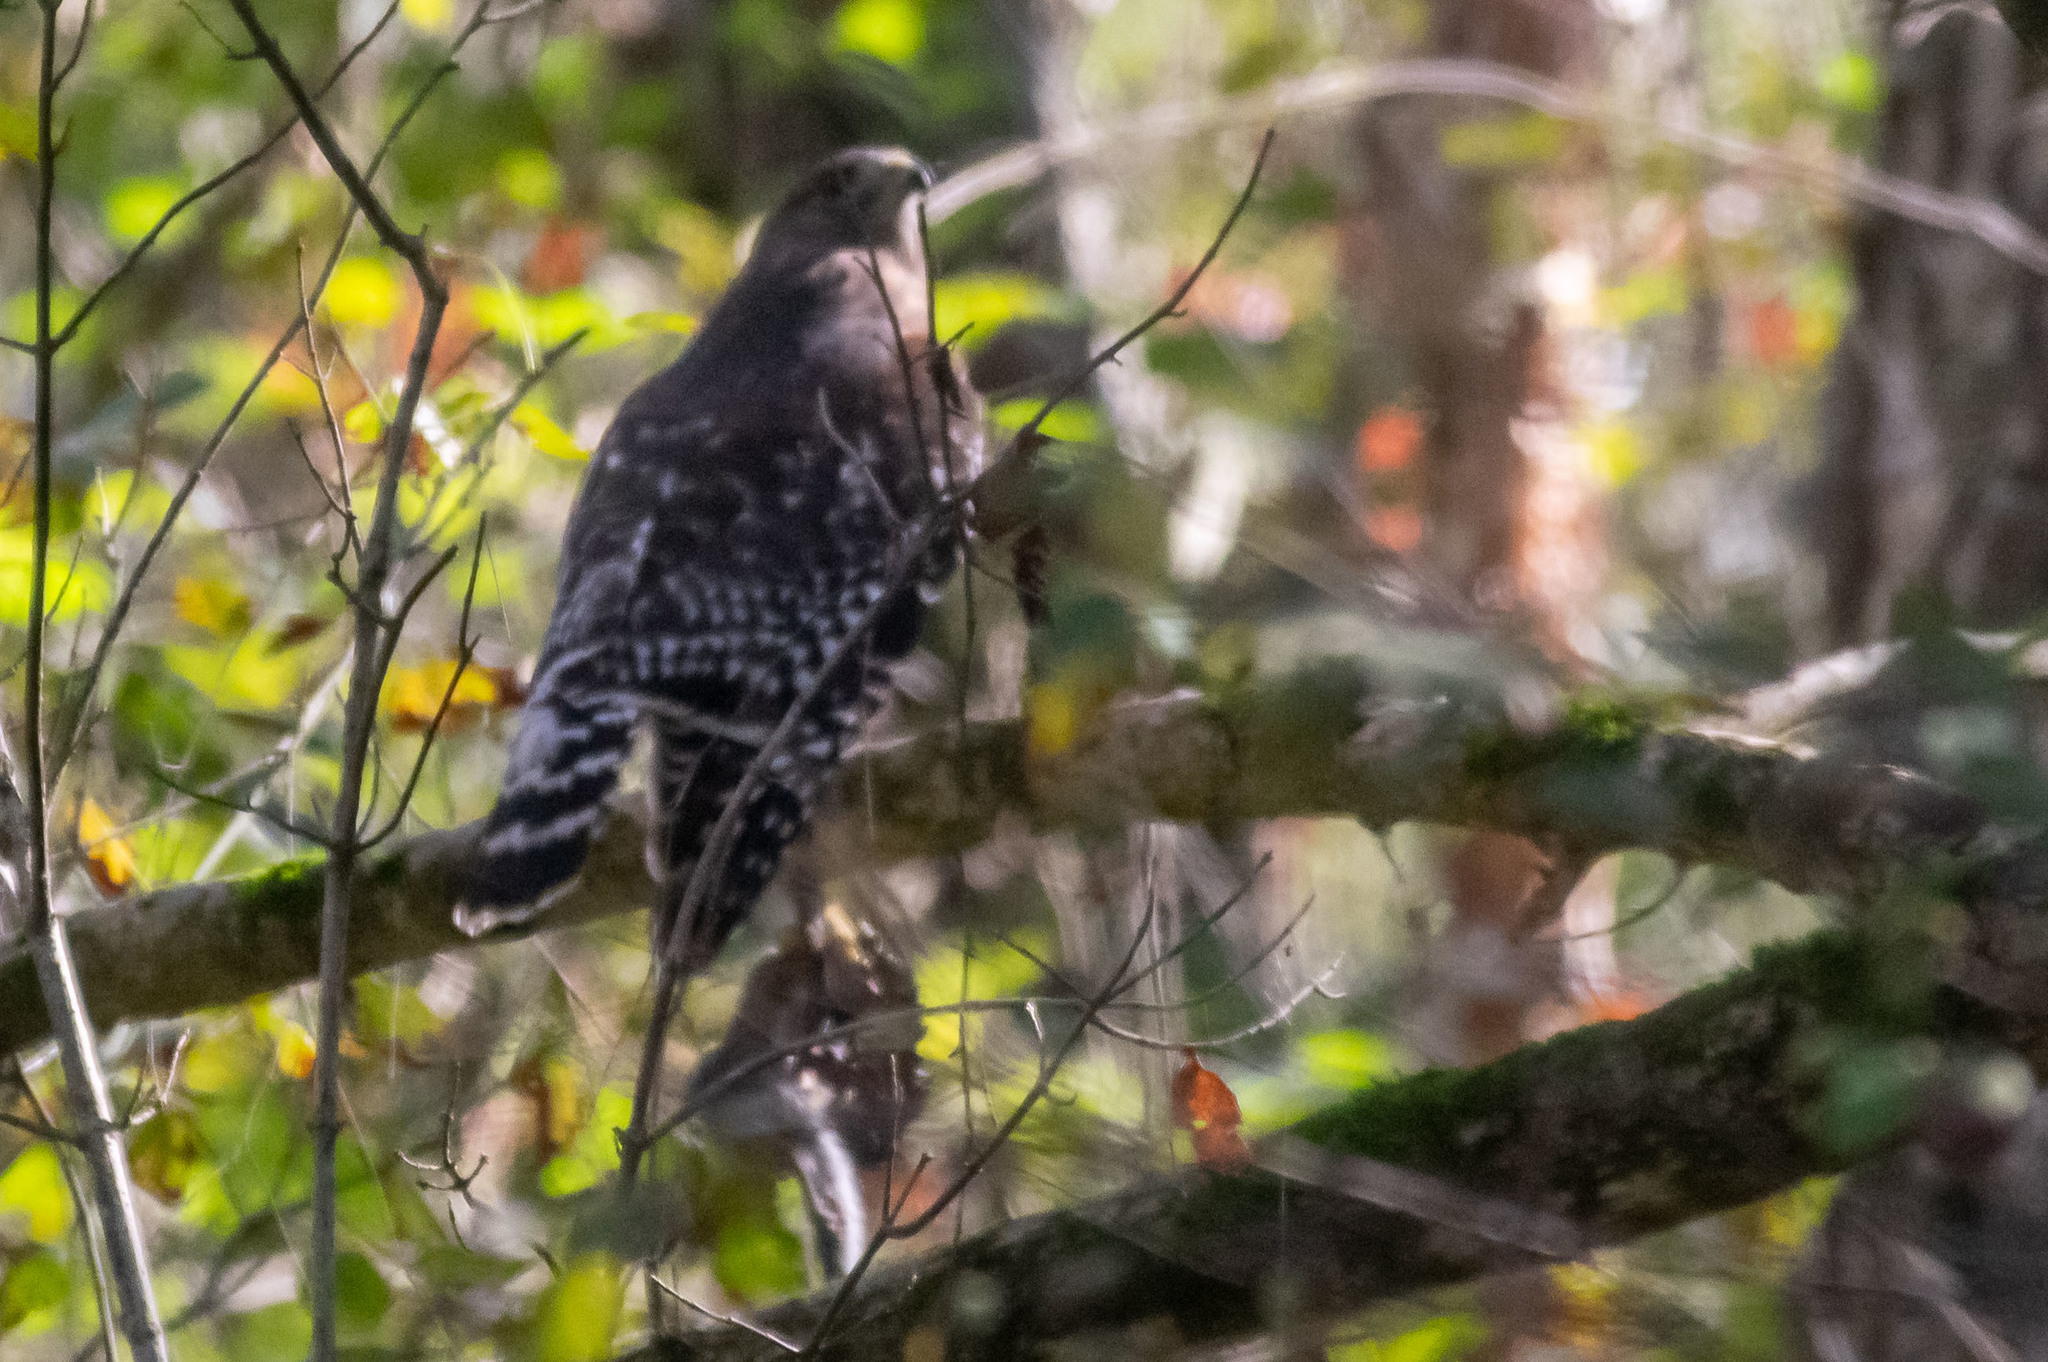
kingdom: Animalia
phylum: Chordata
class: Aves
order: Accipitriformes
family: Accipitridae
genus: Buteo
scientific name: Buteo lineatus
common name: Red-shouldered hawk
